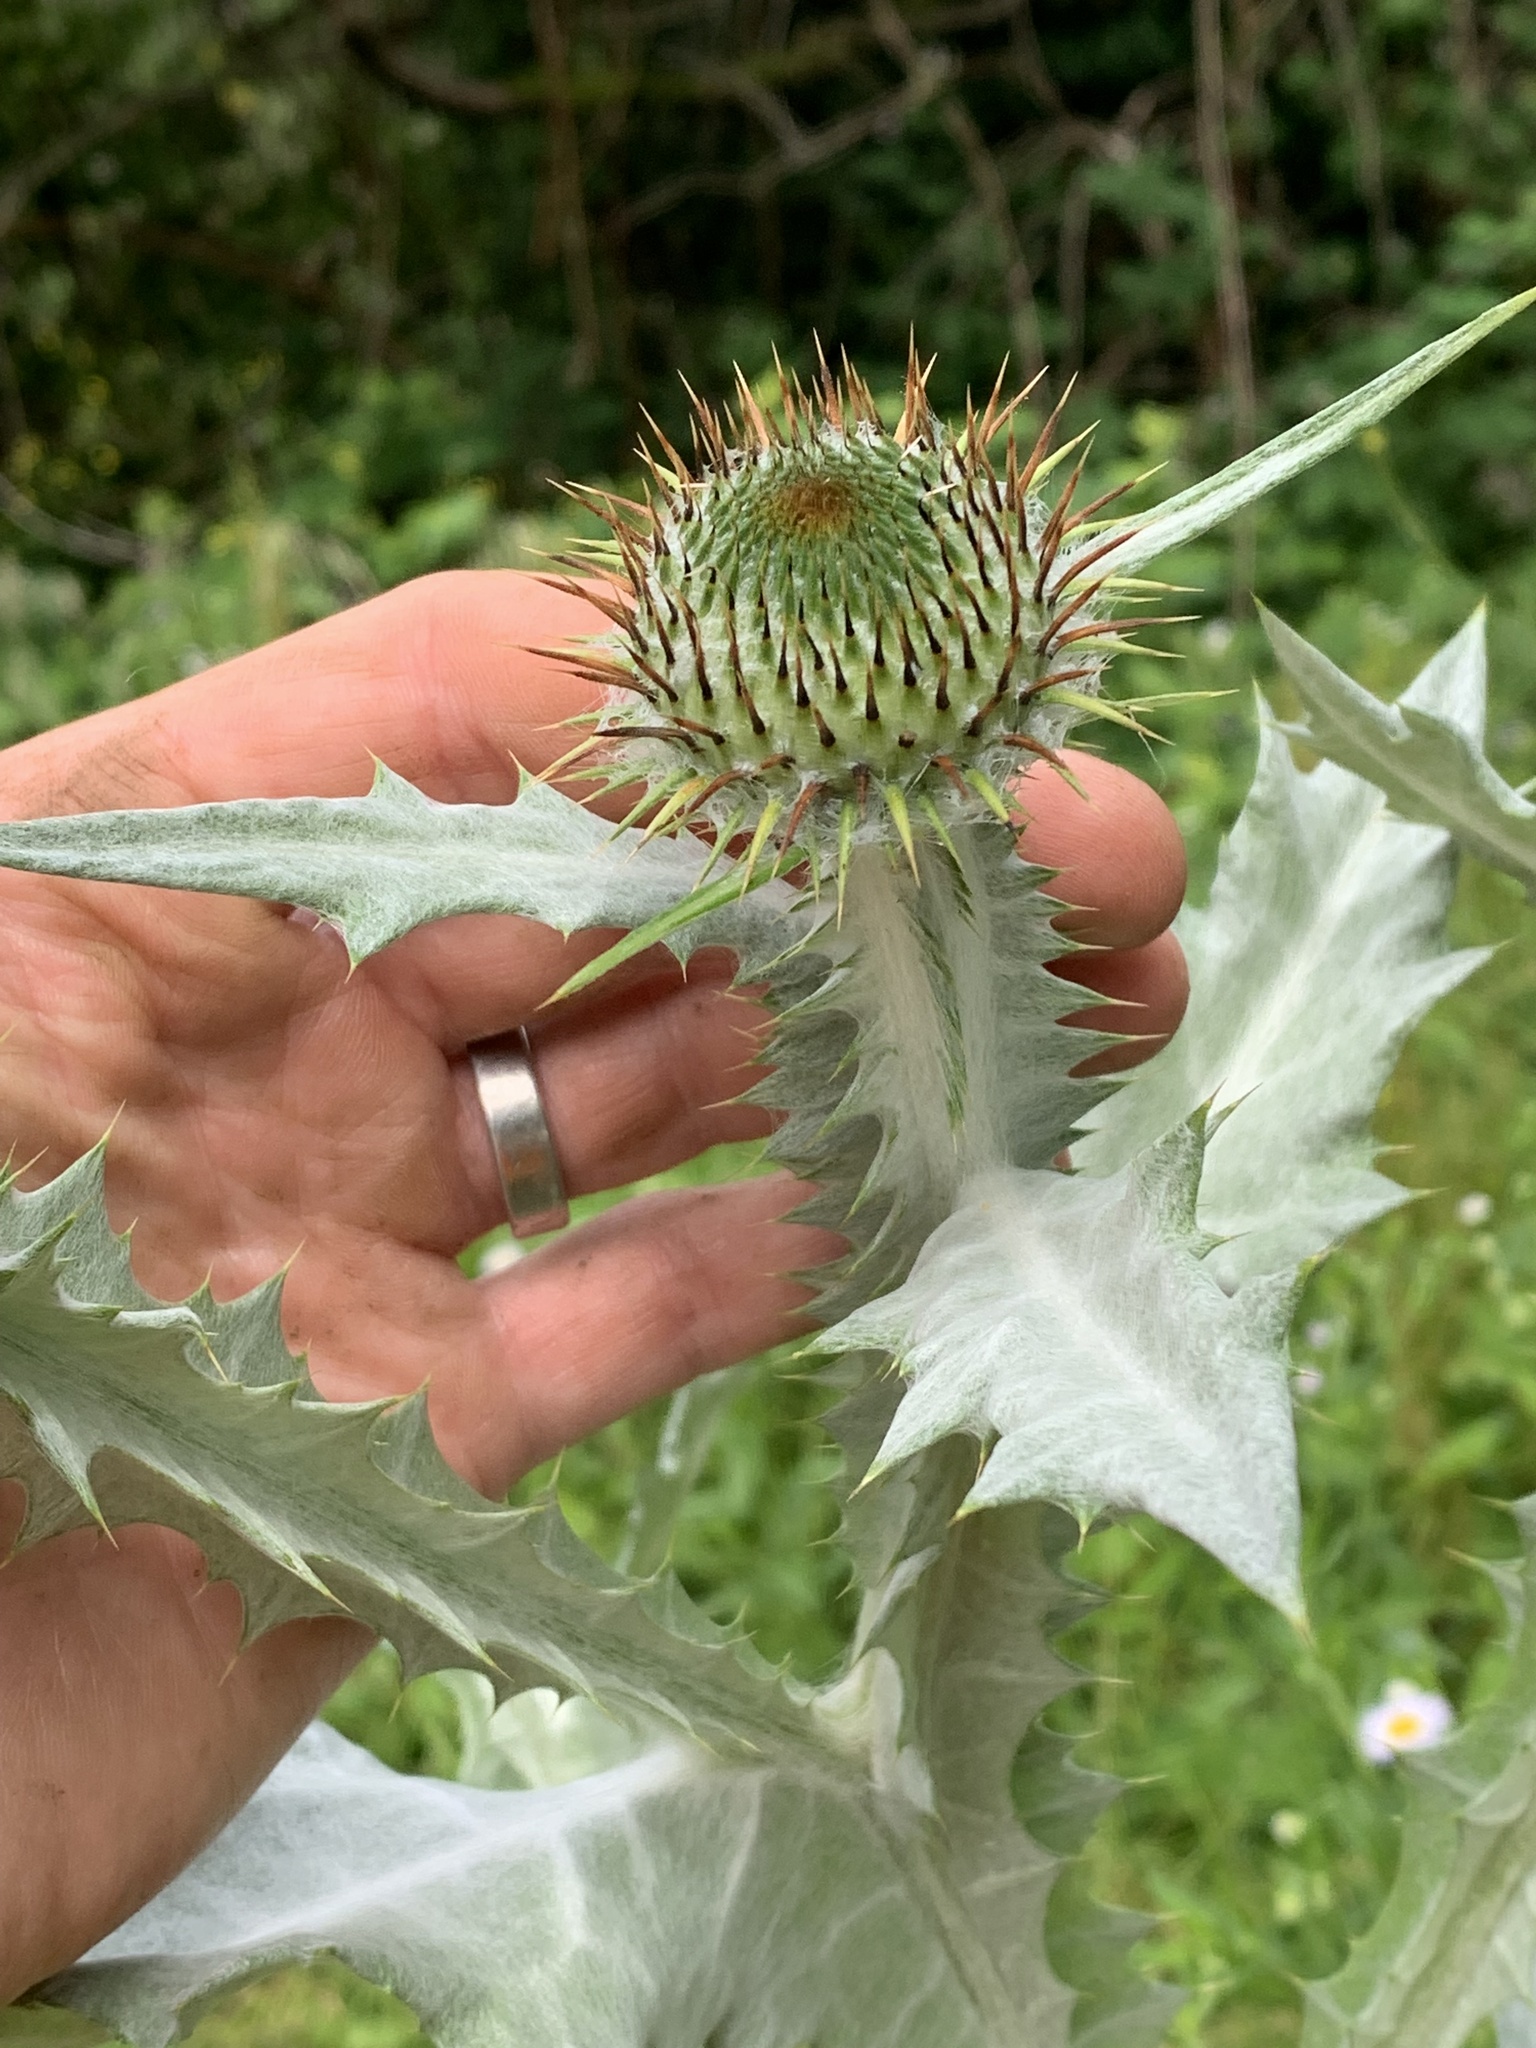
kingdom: Plantae
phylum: Tracheophyta
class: Magnoliopsida
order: Asterales
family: Asteraceae
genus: Onopordum
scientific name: Onopordum acanthium
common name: Scotch thistle
